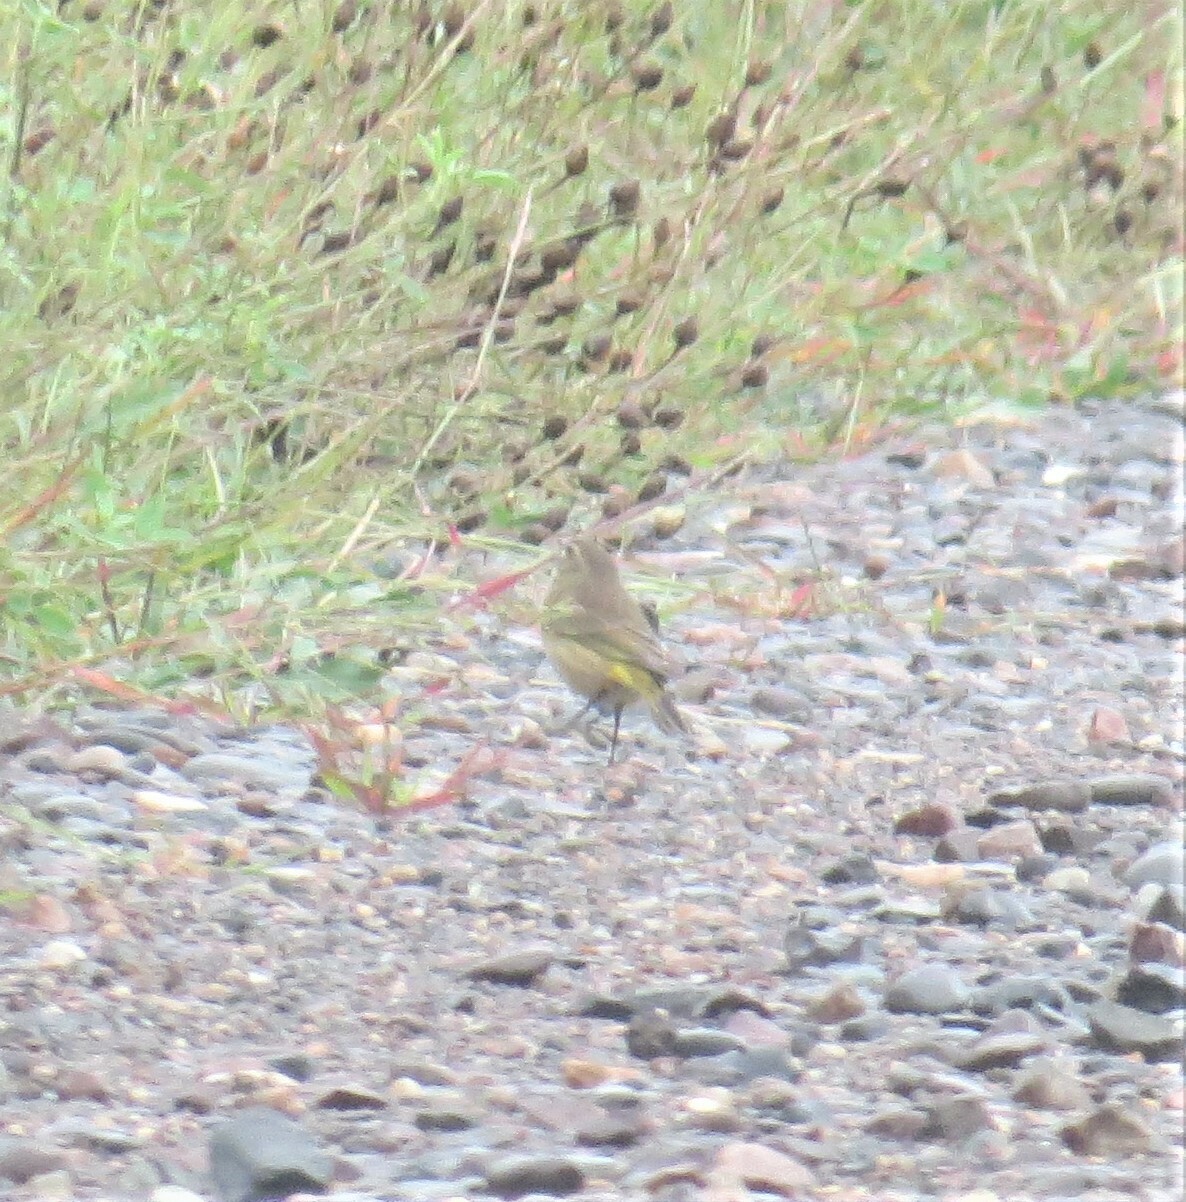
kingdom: Animalia
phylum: Chordata
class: Aves
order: Passeriformes
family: Parulidae
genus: Setophaga
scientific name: Setophaga palmarum
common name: Palm warbler
